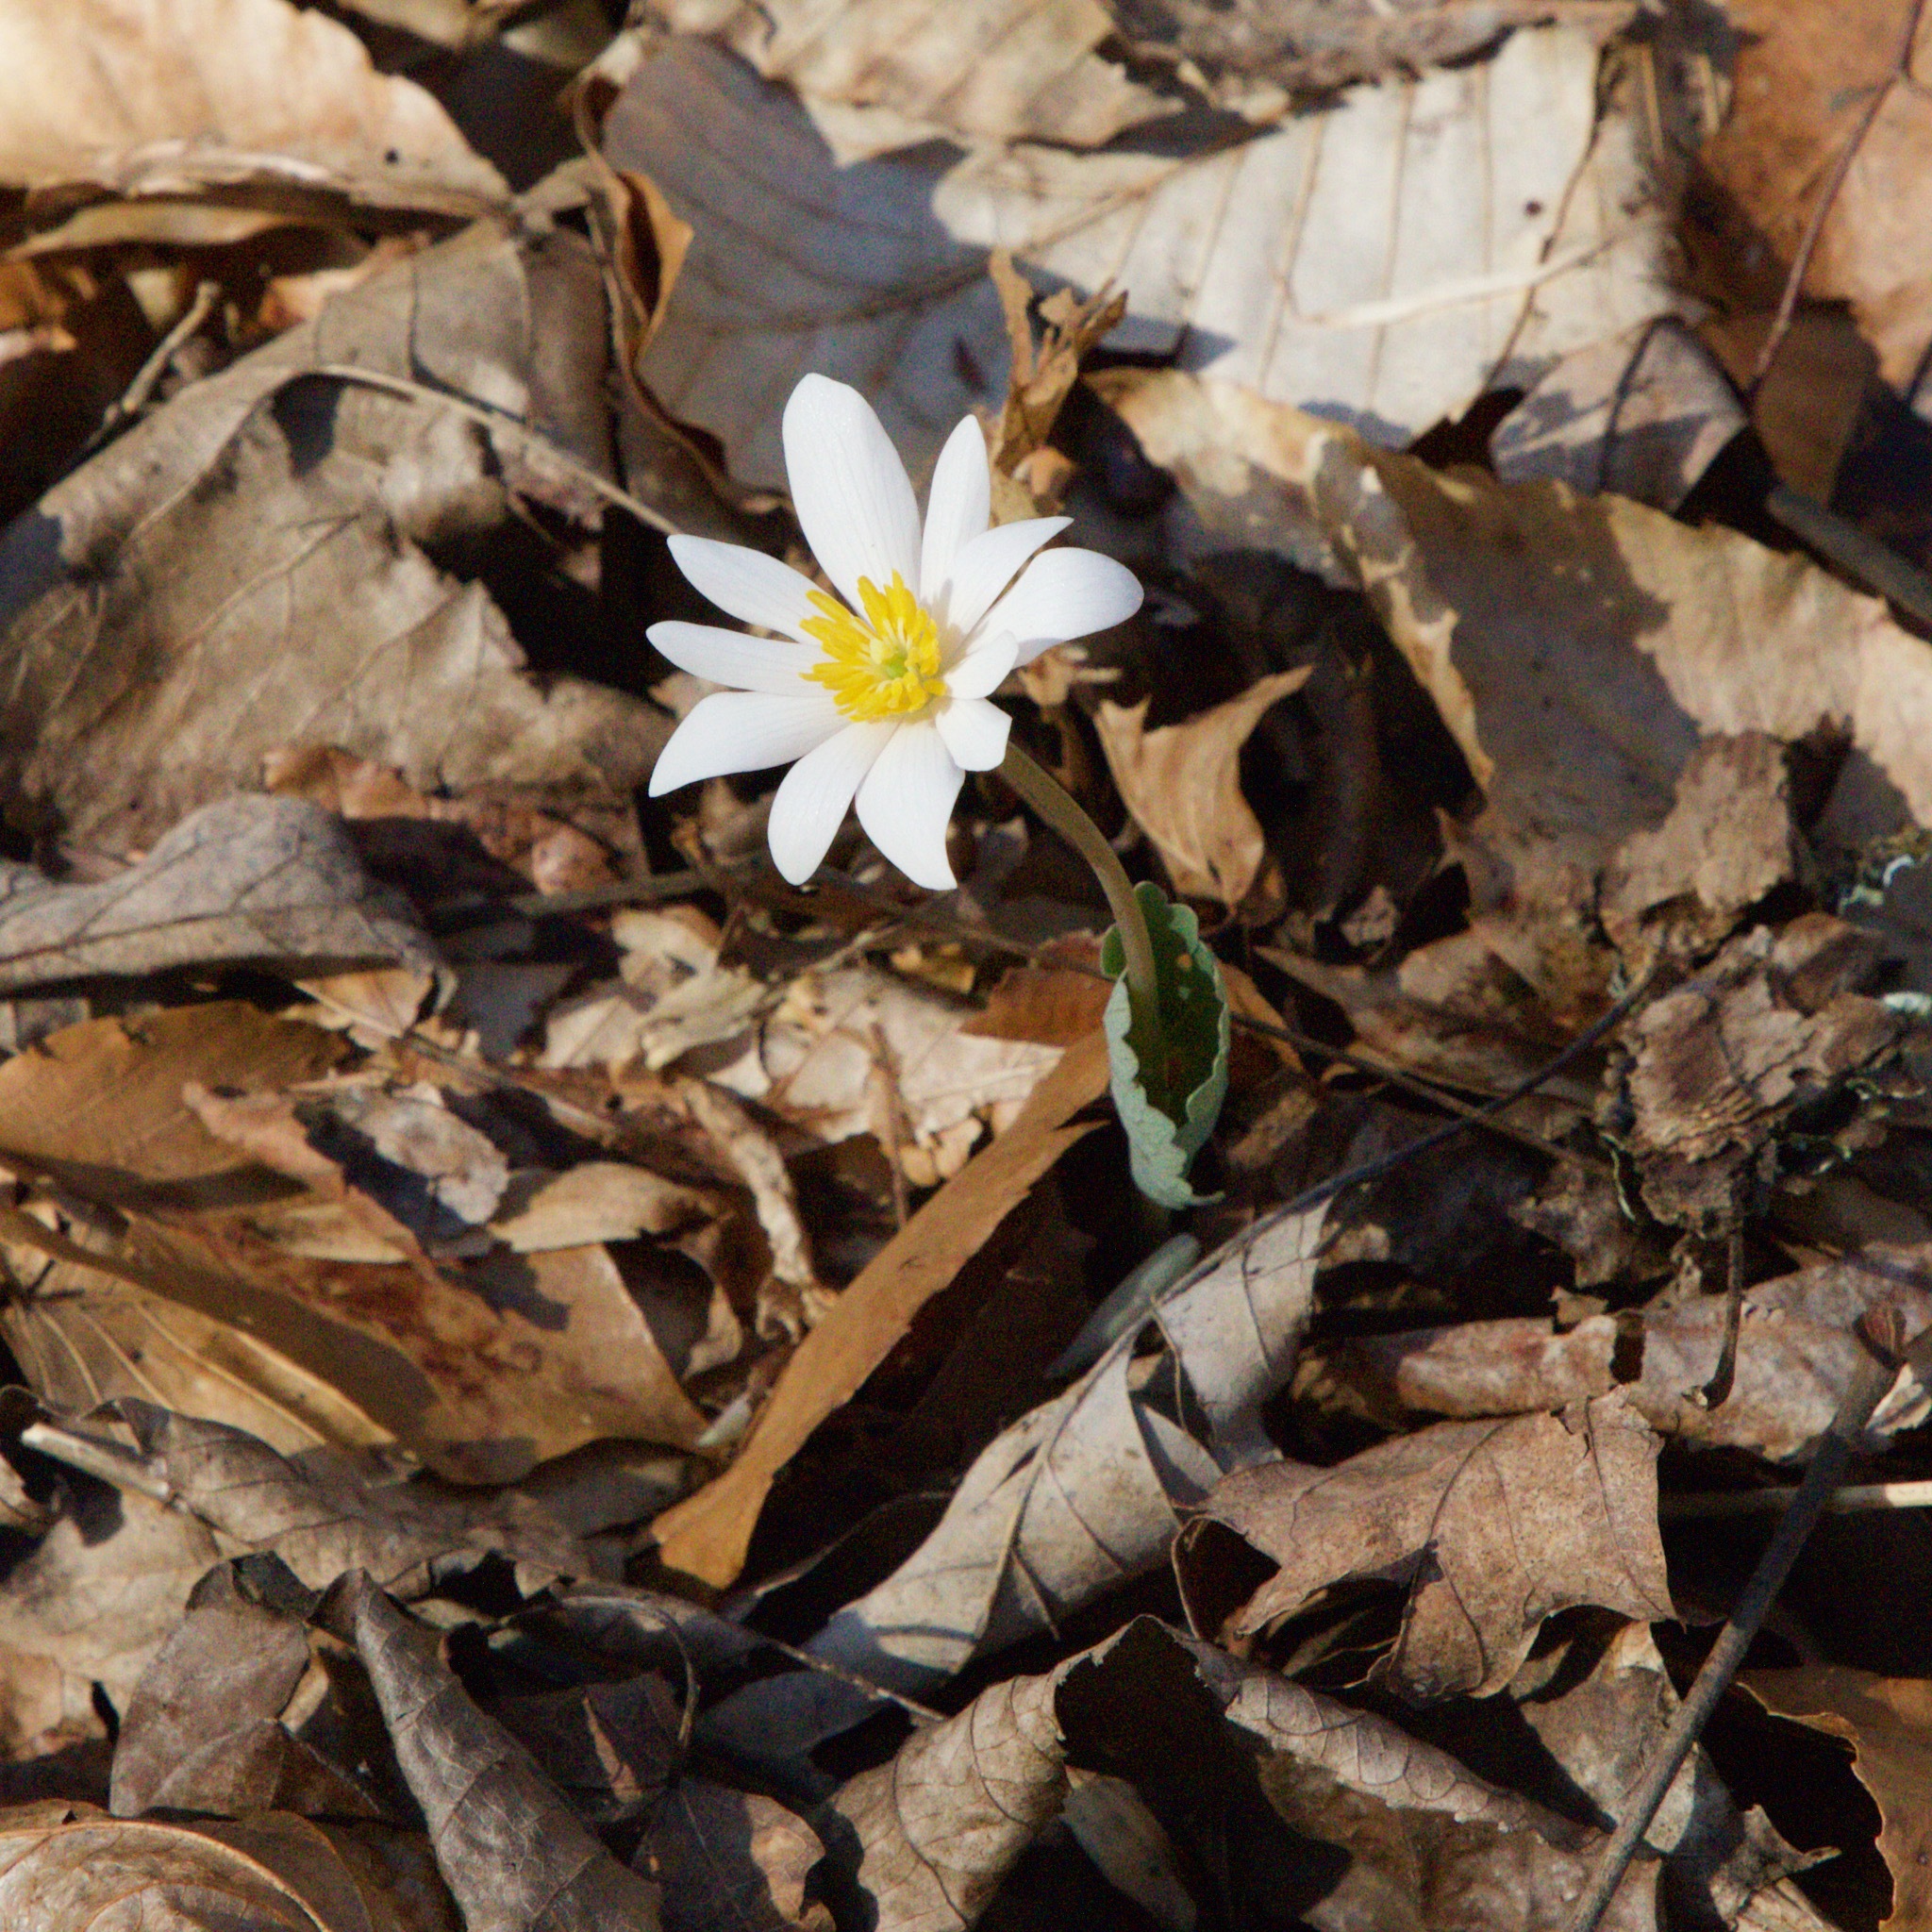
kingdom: Plantae
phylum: Tracheophyta
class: Magnoliopsida
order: Ranunculales
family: Papaveraceae
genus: Sanguinaria
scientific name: Sanguinaria canadensis
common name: Bloodroot
